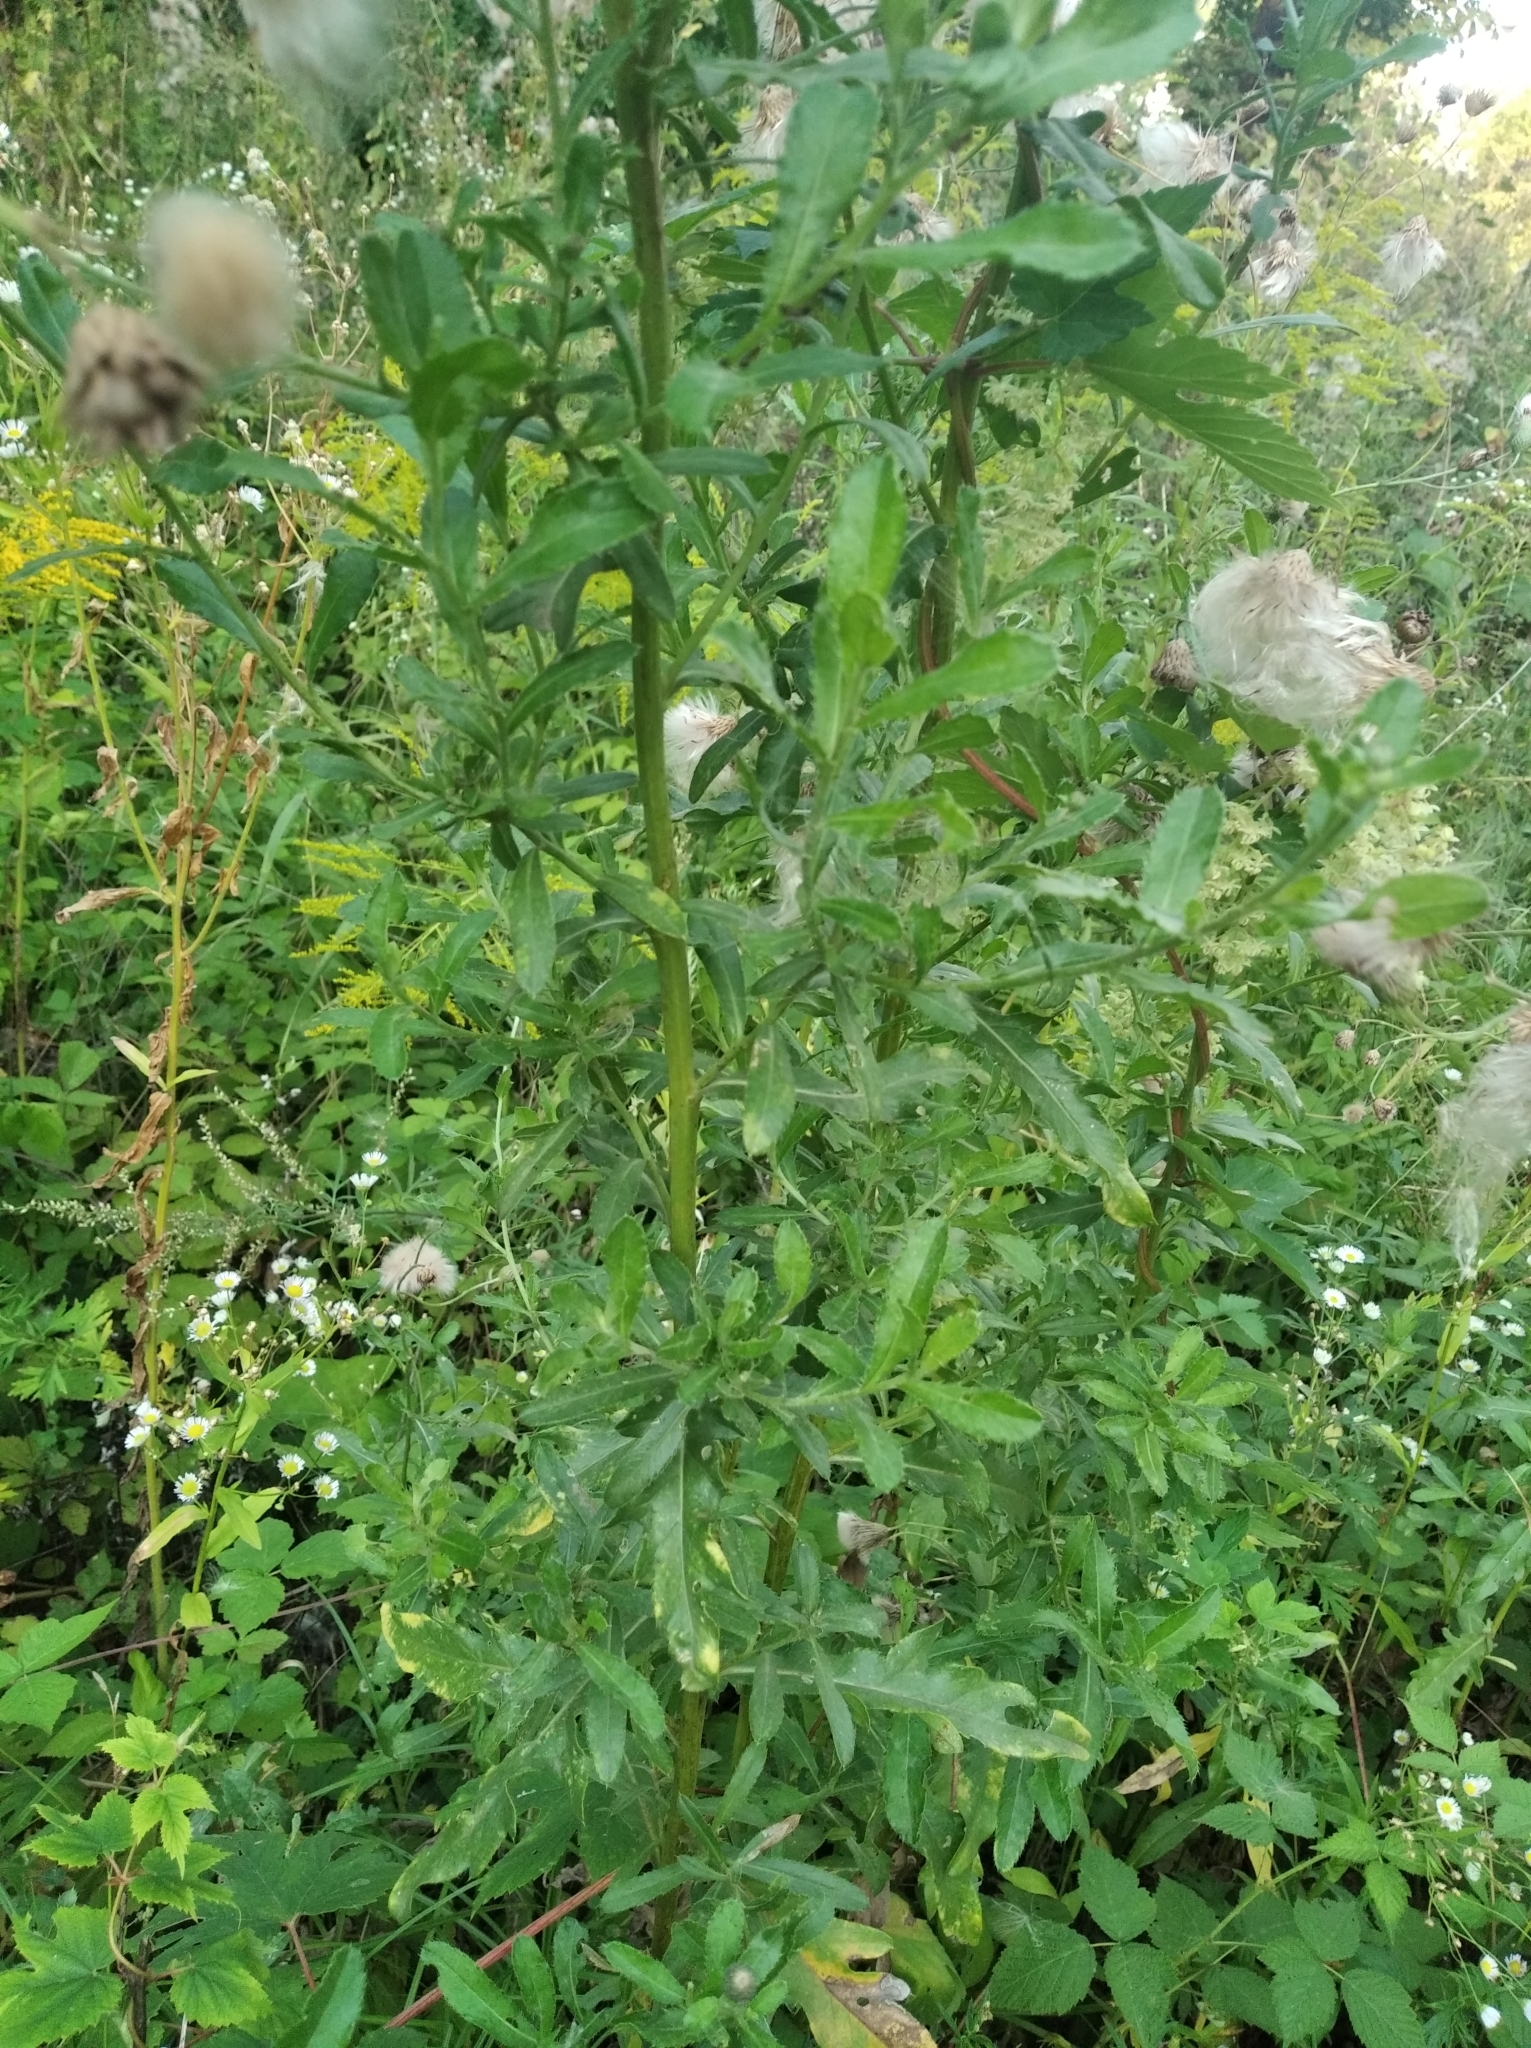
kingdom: Plantae
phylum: Tracheophyta
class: Magnoliopsida
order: Asterales
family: Asteraceae
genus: Cirsium
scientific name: Cirsium arvense
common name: Creeping thistle
